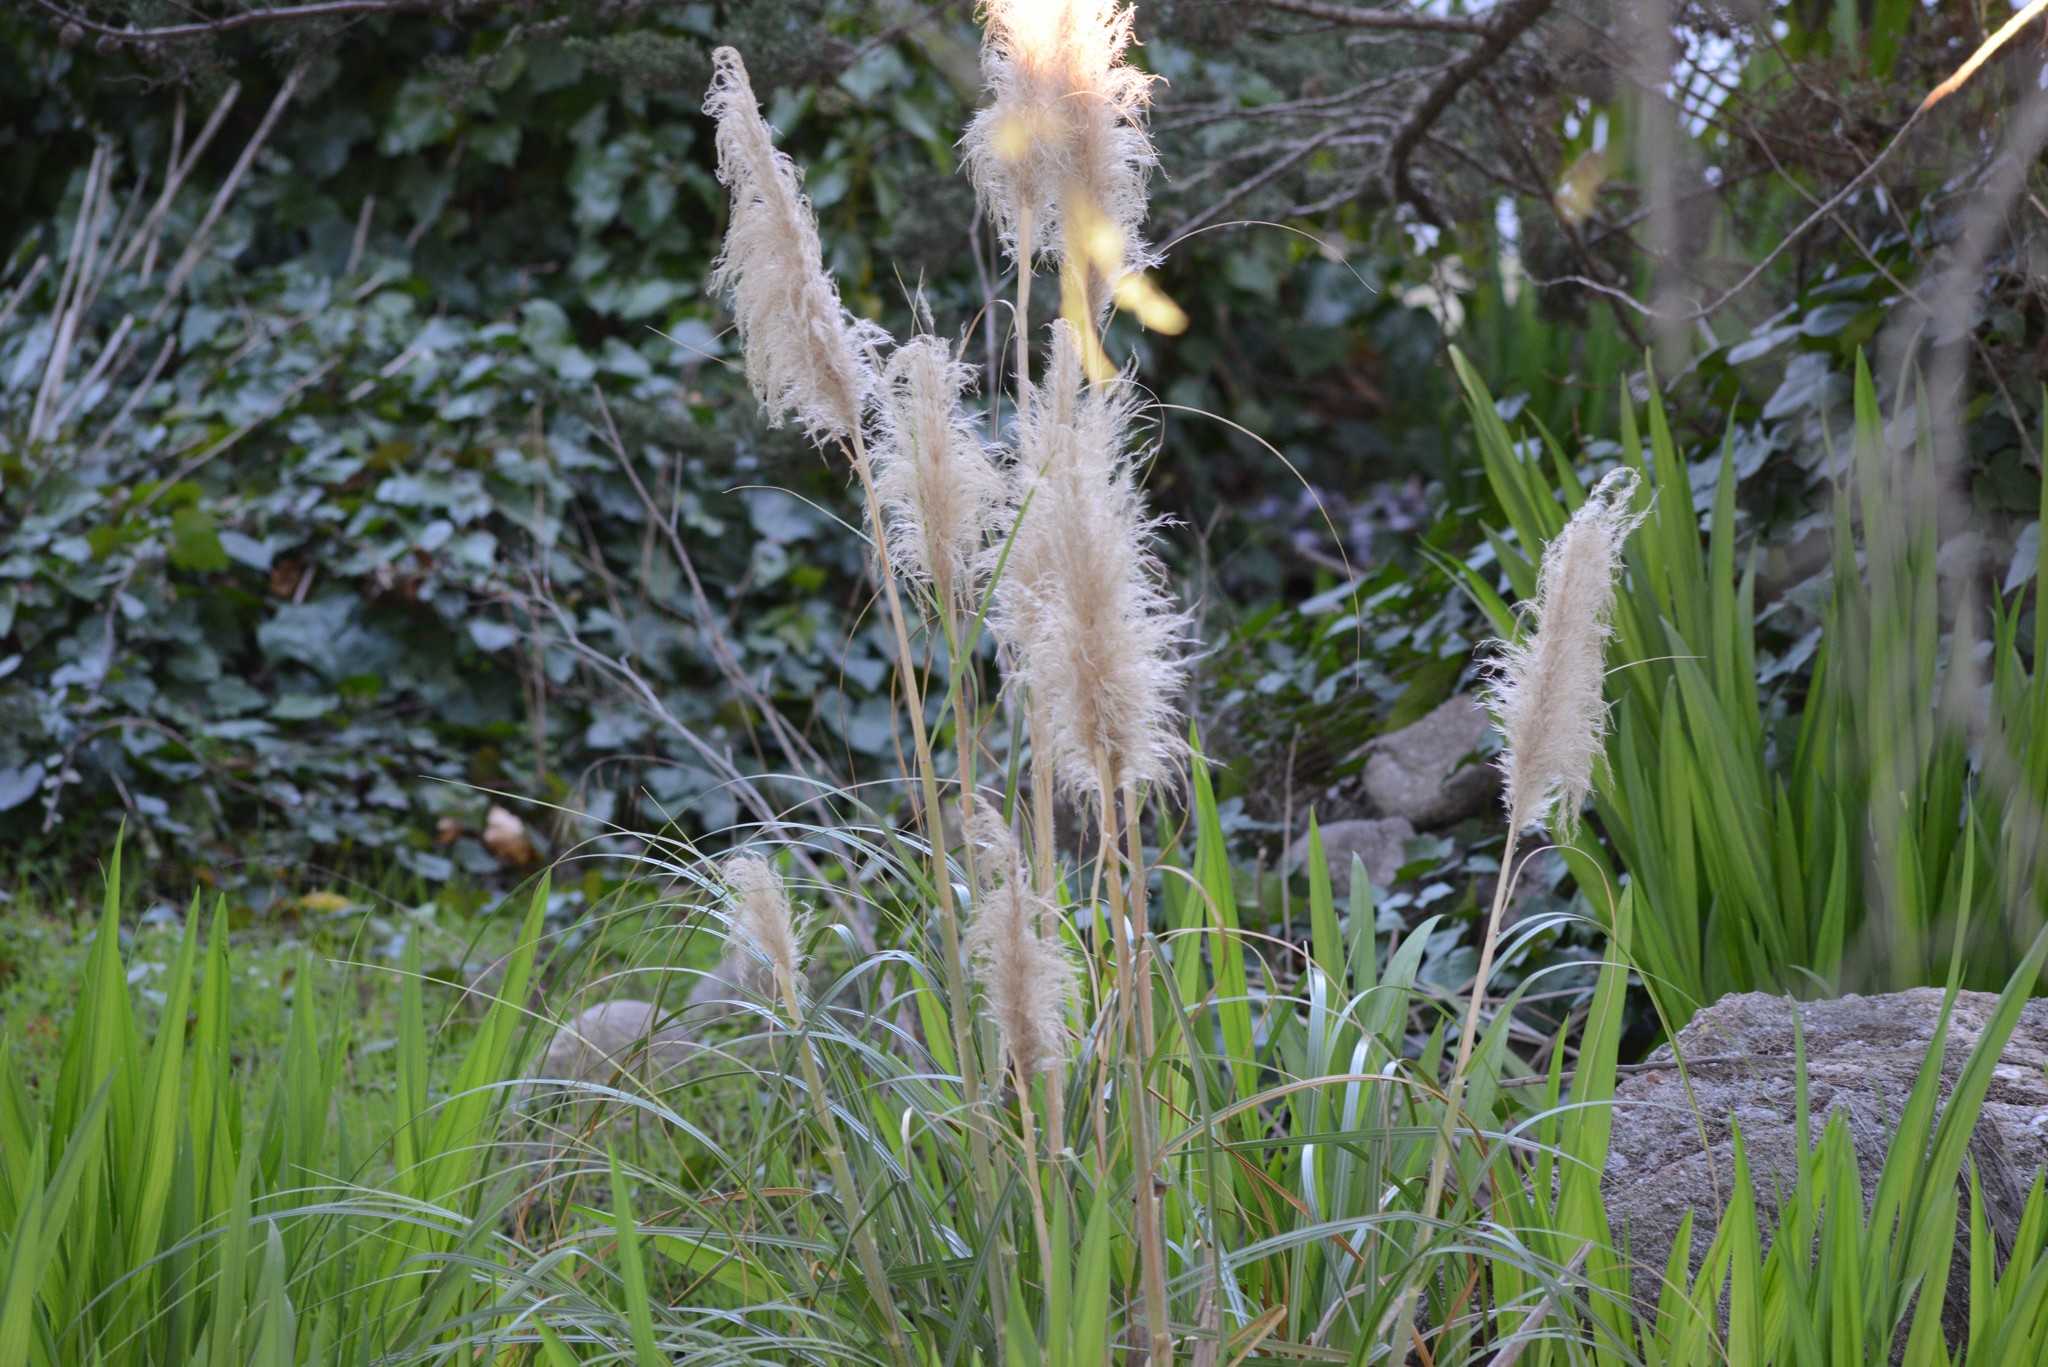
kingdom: Plantae
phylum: Tracheophyta
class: Liliopsida
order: Poales
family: Poaceae
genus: Cortaderia
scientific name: Cortaderia selloana
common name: Uruguayan pampas grass
